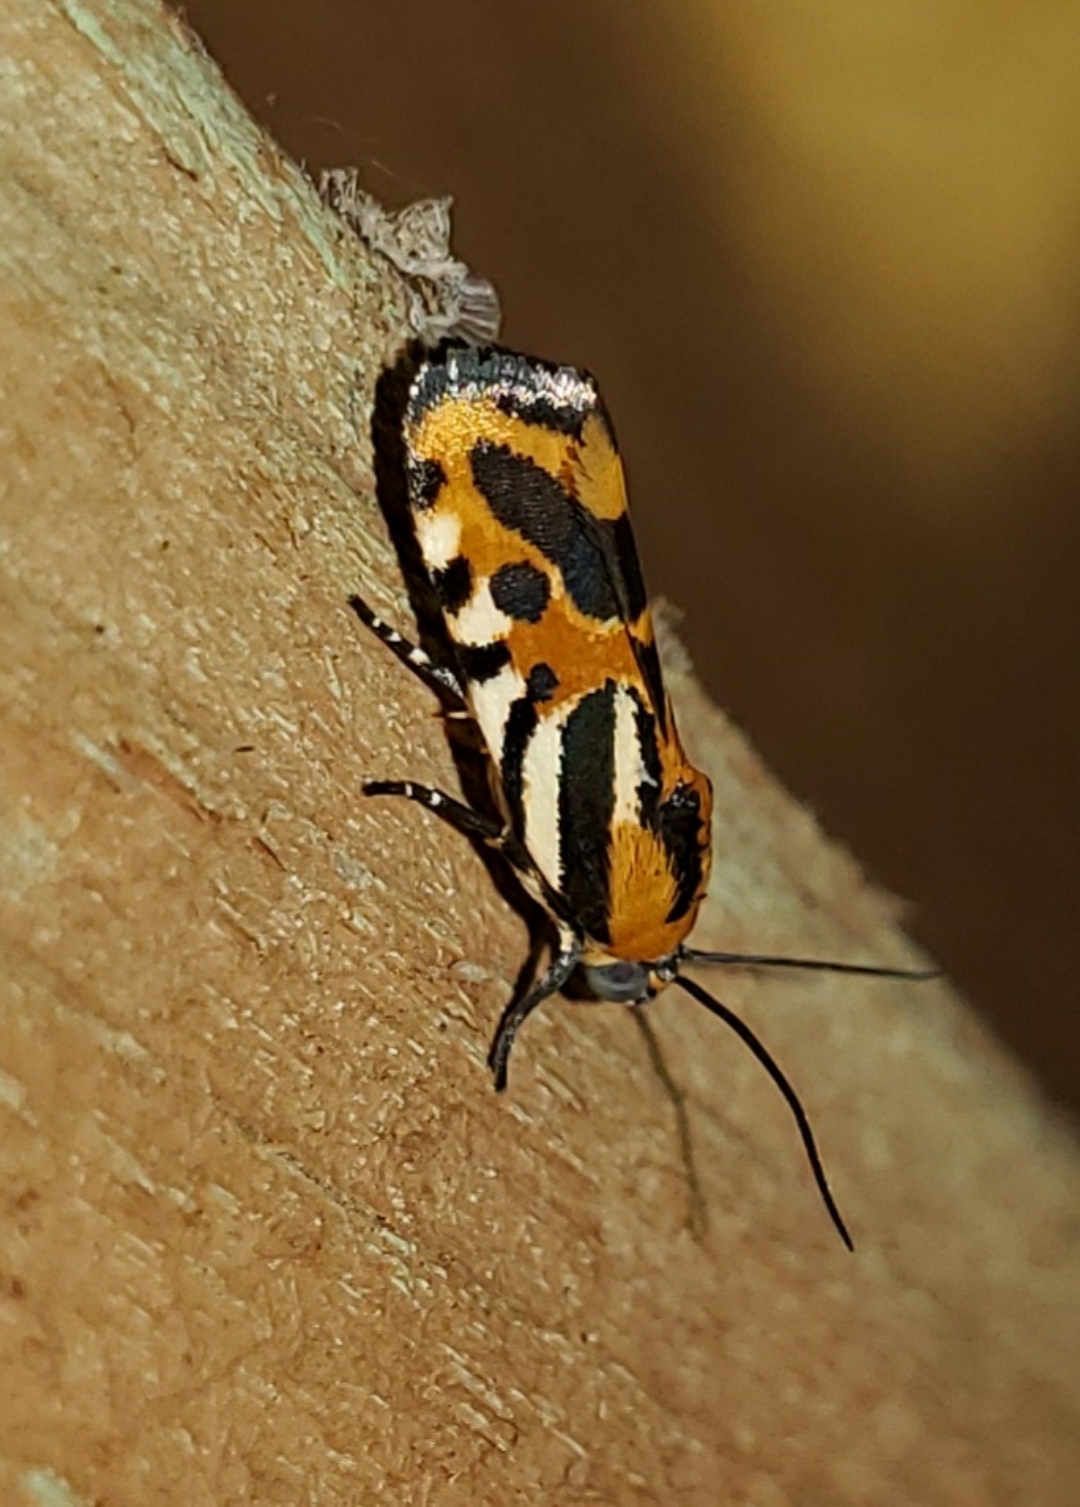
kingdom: Animalia
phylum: Arthropoda
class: Insecta
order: Lepidoptera
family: Noctuidae
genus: Acontia
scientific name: Acontia onagrus
